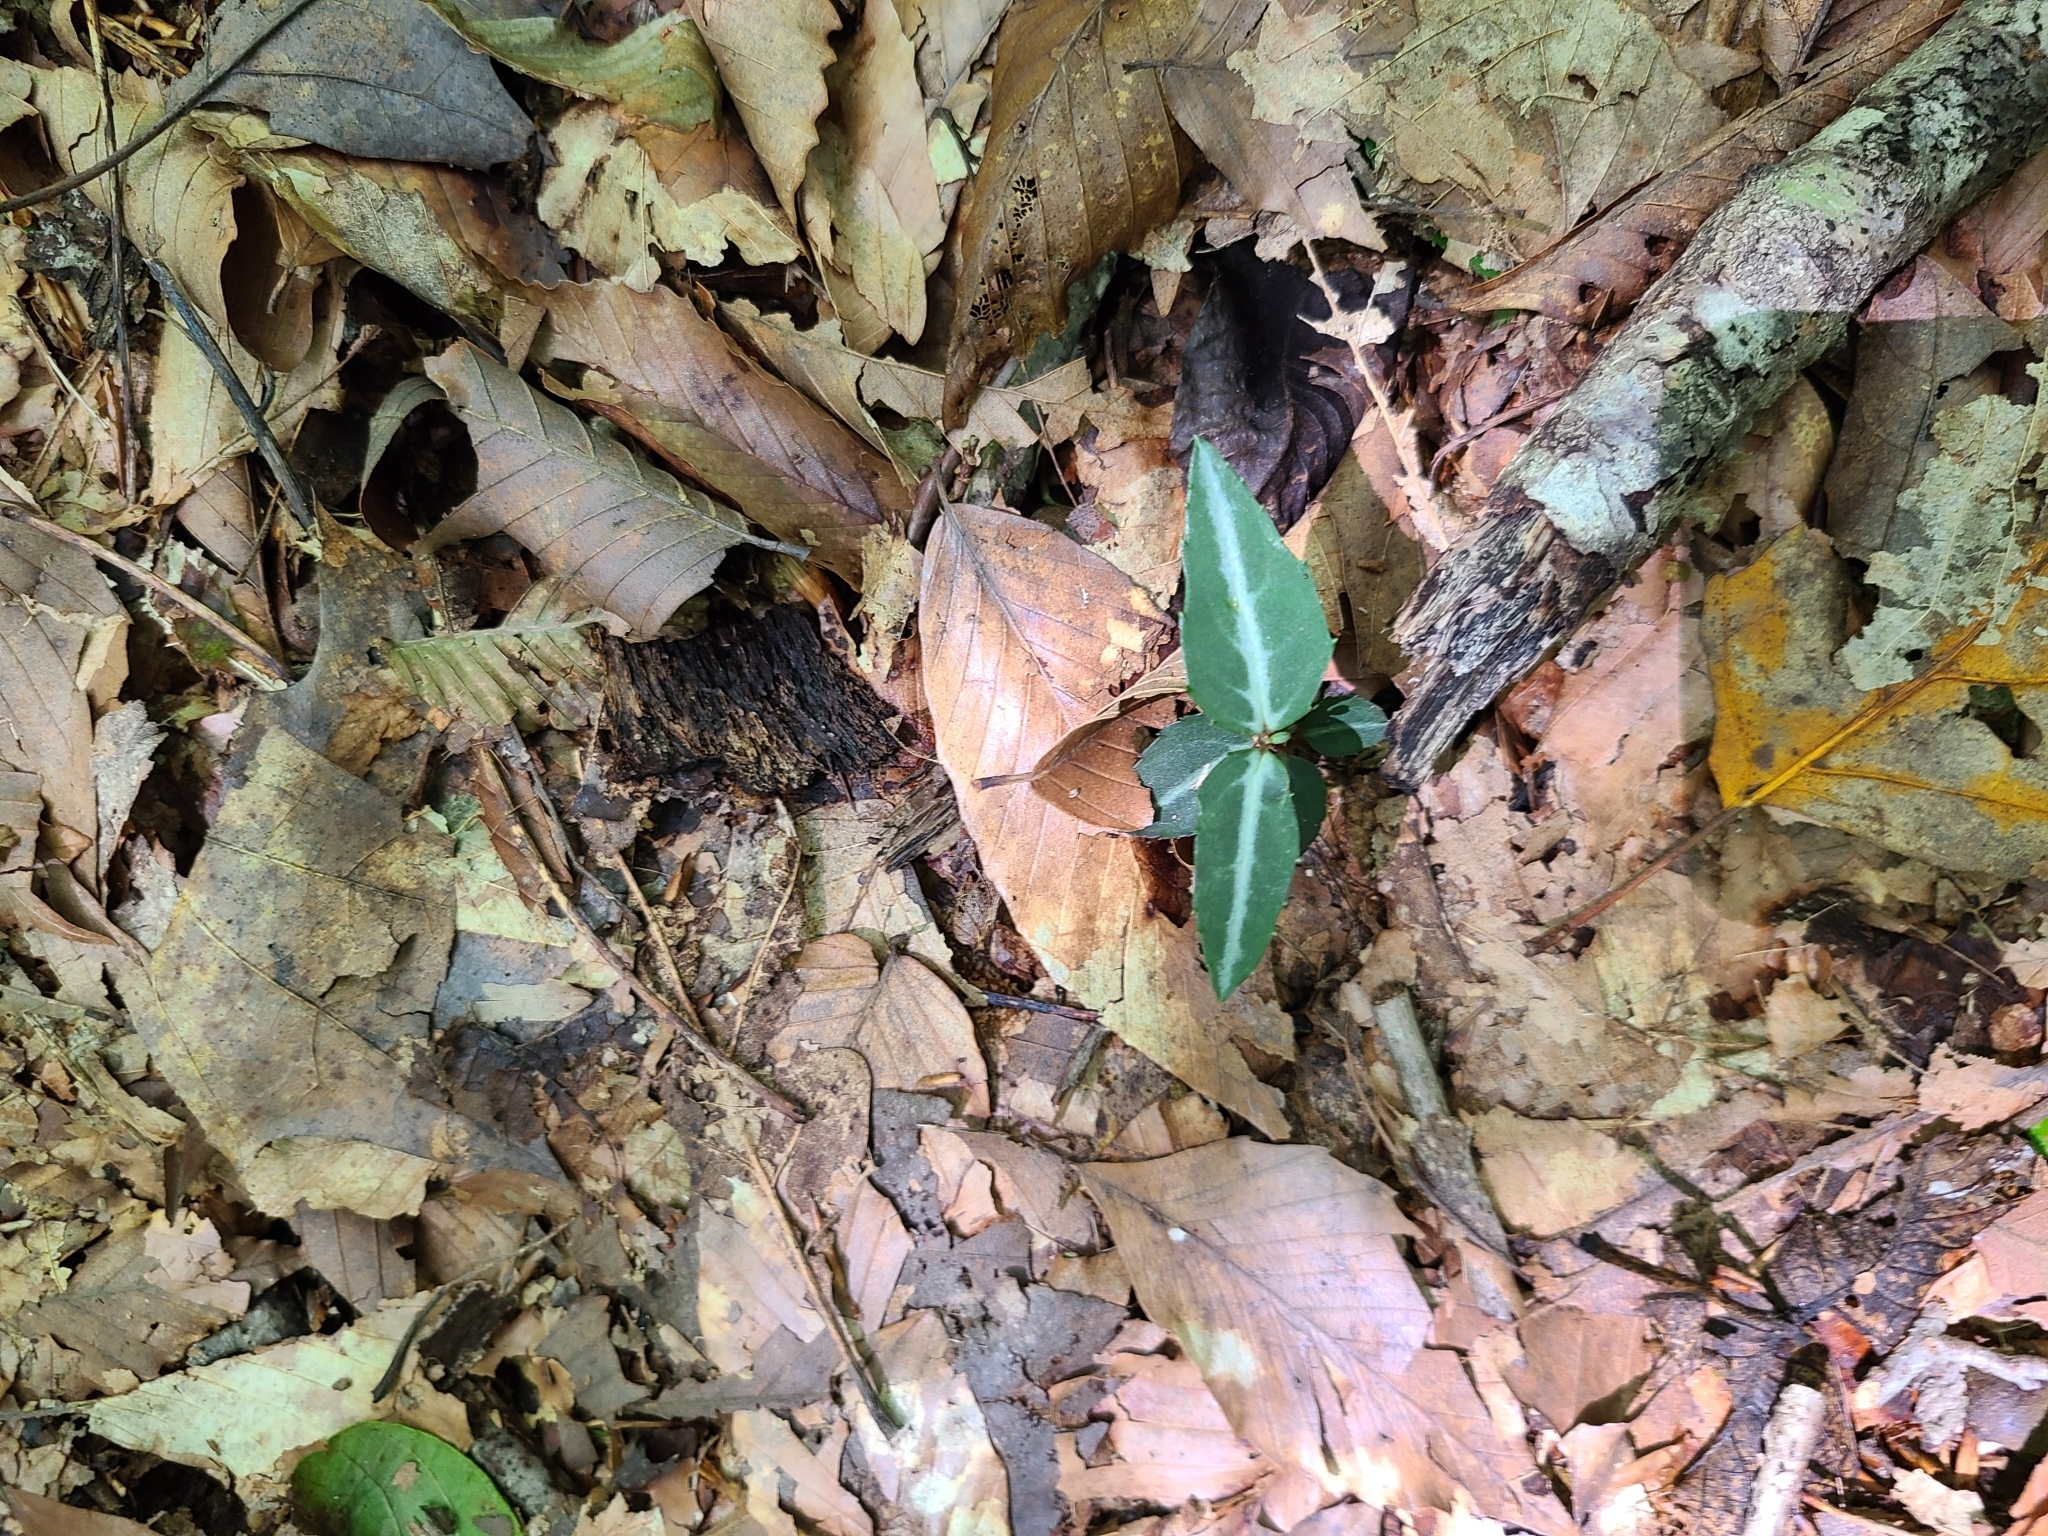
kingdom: Plantae
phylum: Tracheophyta
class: Magnoliopsida
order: Ericales
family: Ericaceae
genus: Chimaphila
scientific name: Chimaphila maculata
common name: Spotted pipsissewa
